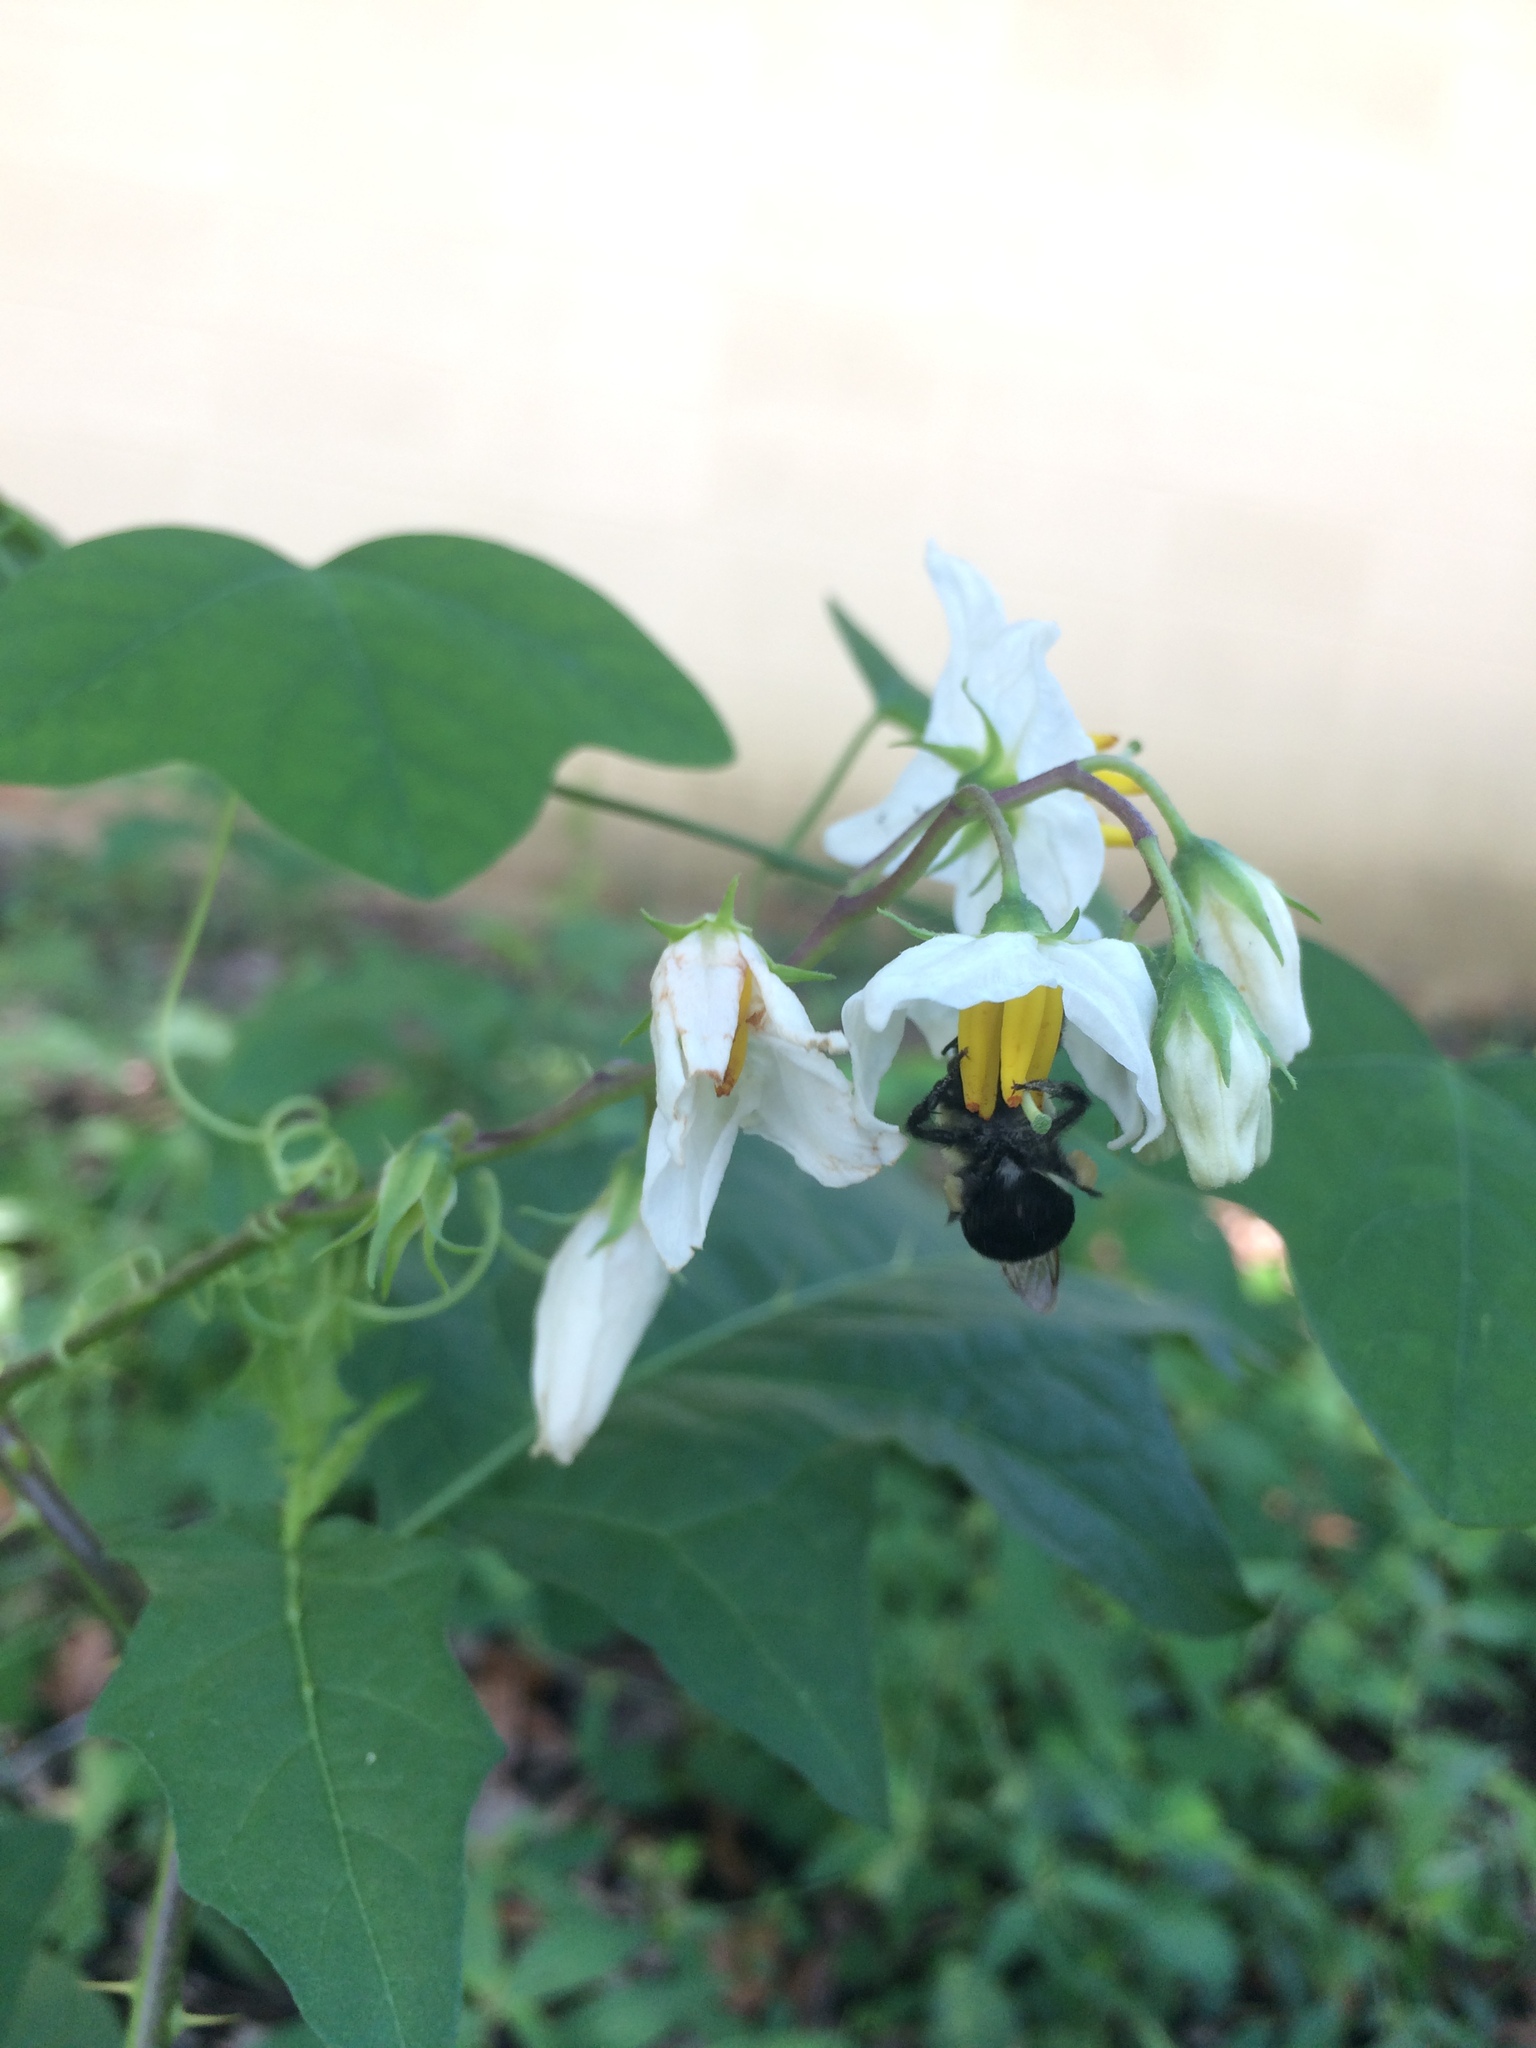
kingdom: Animalia
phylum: Arthropoda
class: Insecta
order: Hymenoptera
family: Apidae
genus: Bombus
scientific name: Bombus impatiens
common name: Common eastern bumble bee
